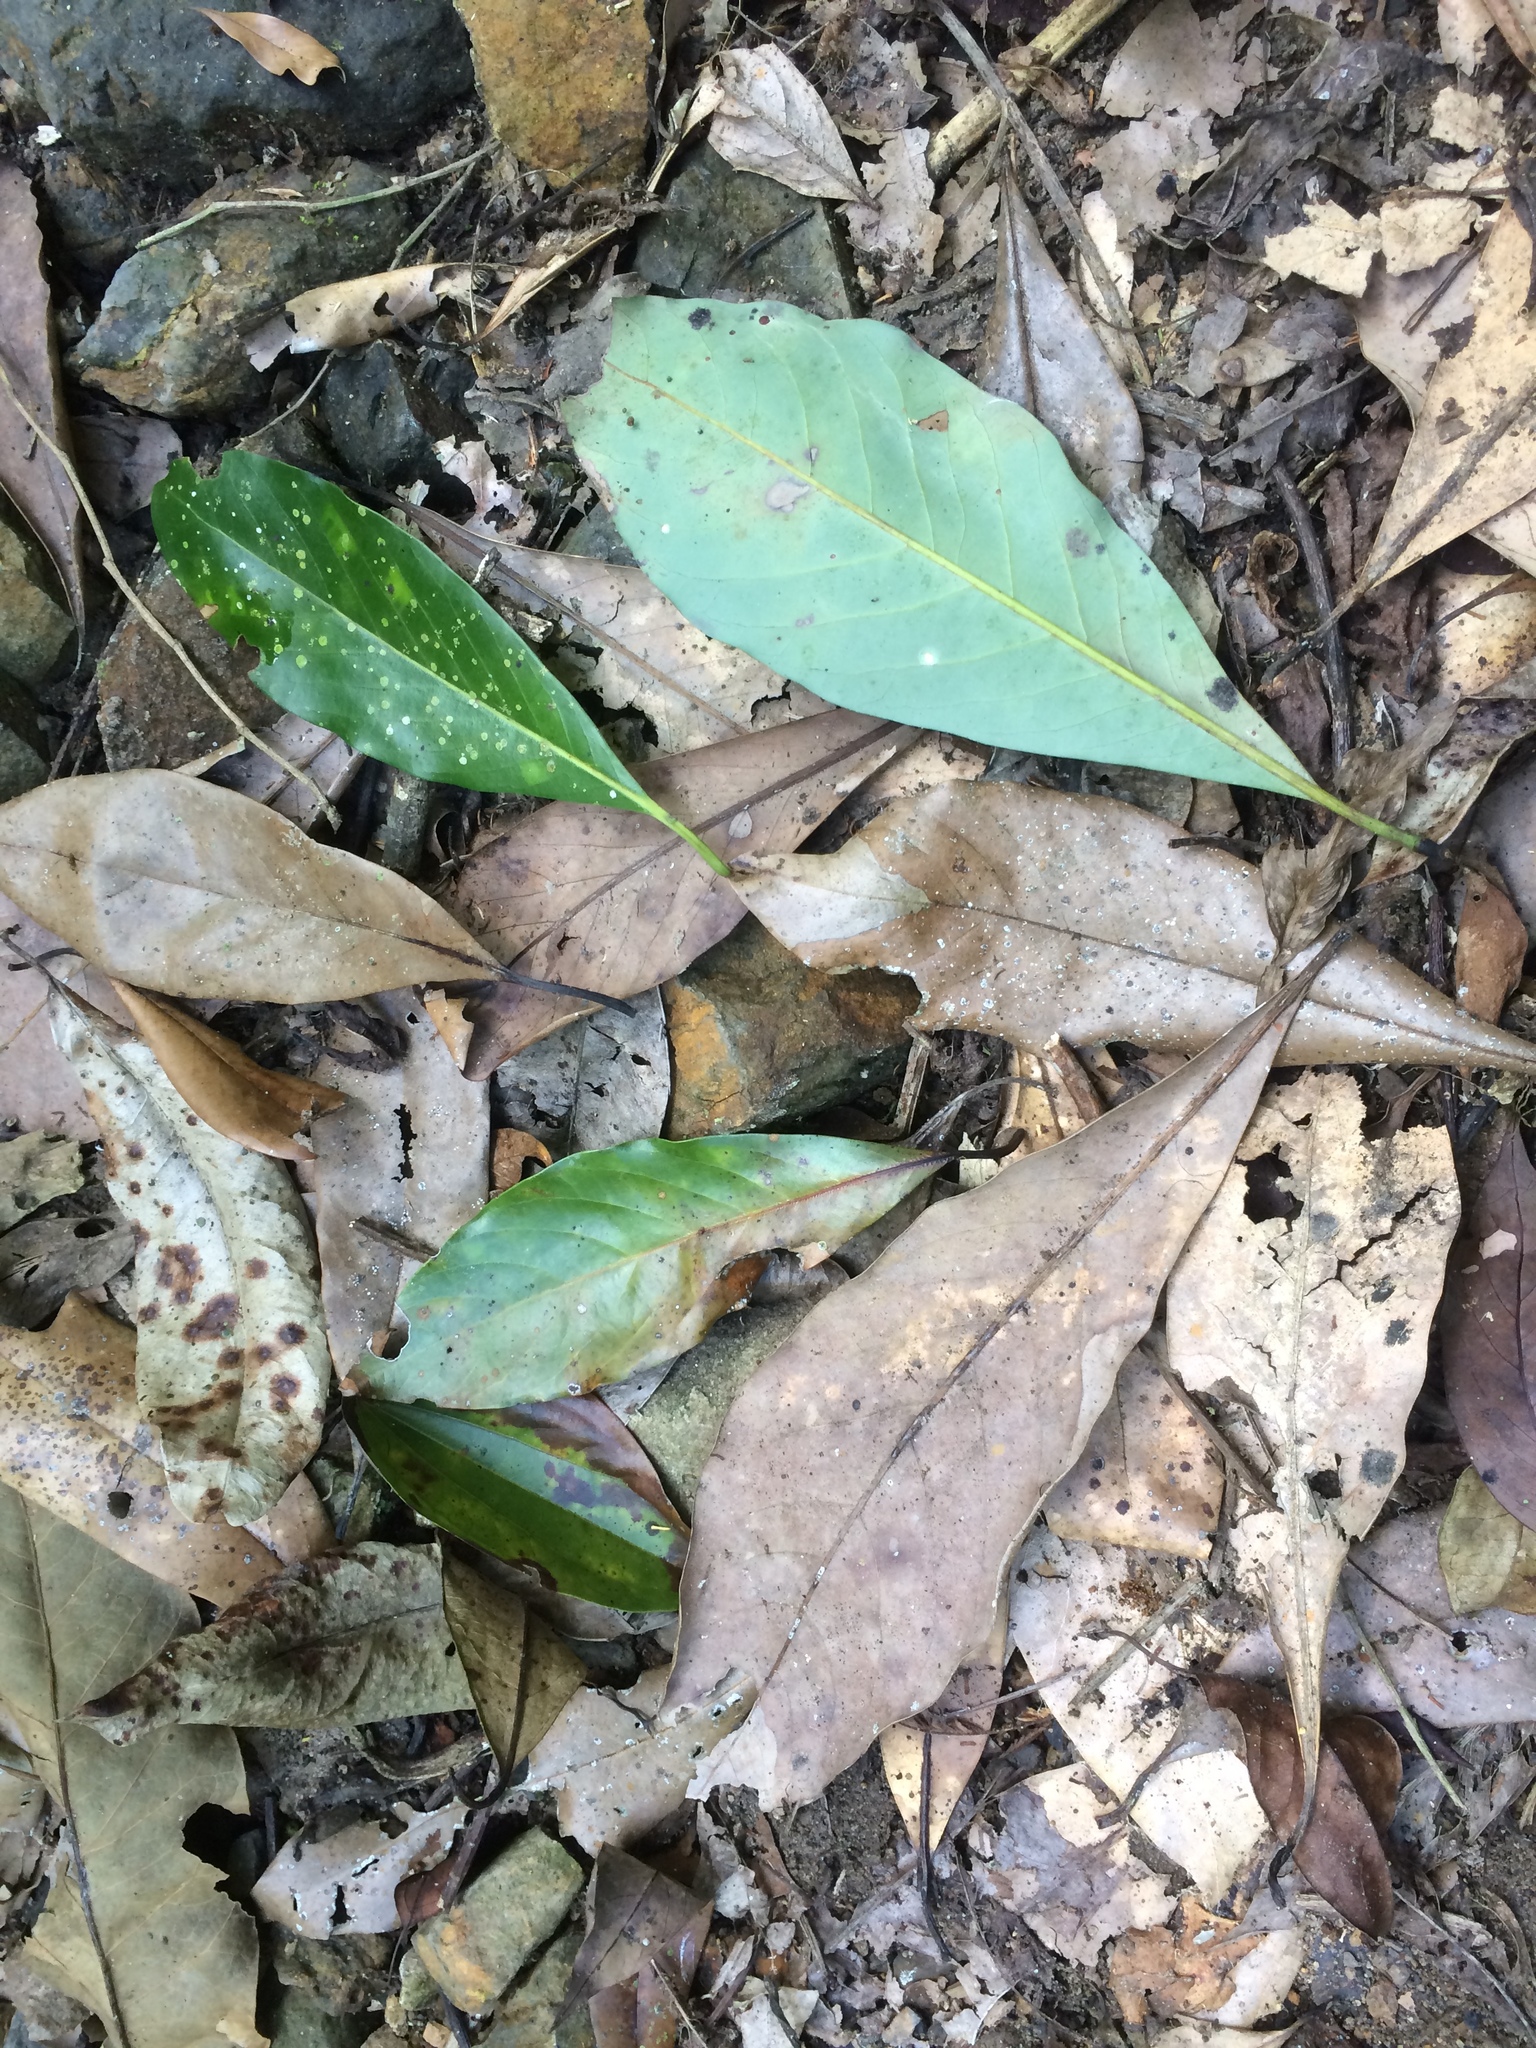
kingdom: Plantae
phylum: Tracheophyta
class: Magnoliopsida
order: Laurales
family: Lauraceae
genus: Machilus
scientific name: Machilus japonica
